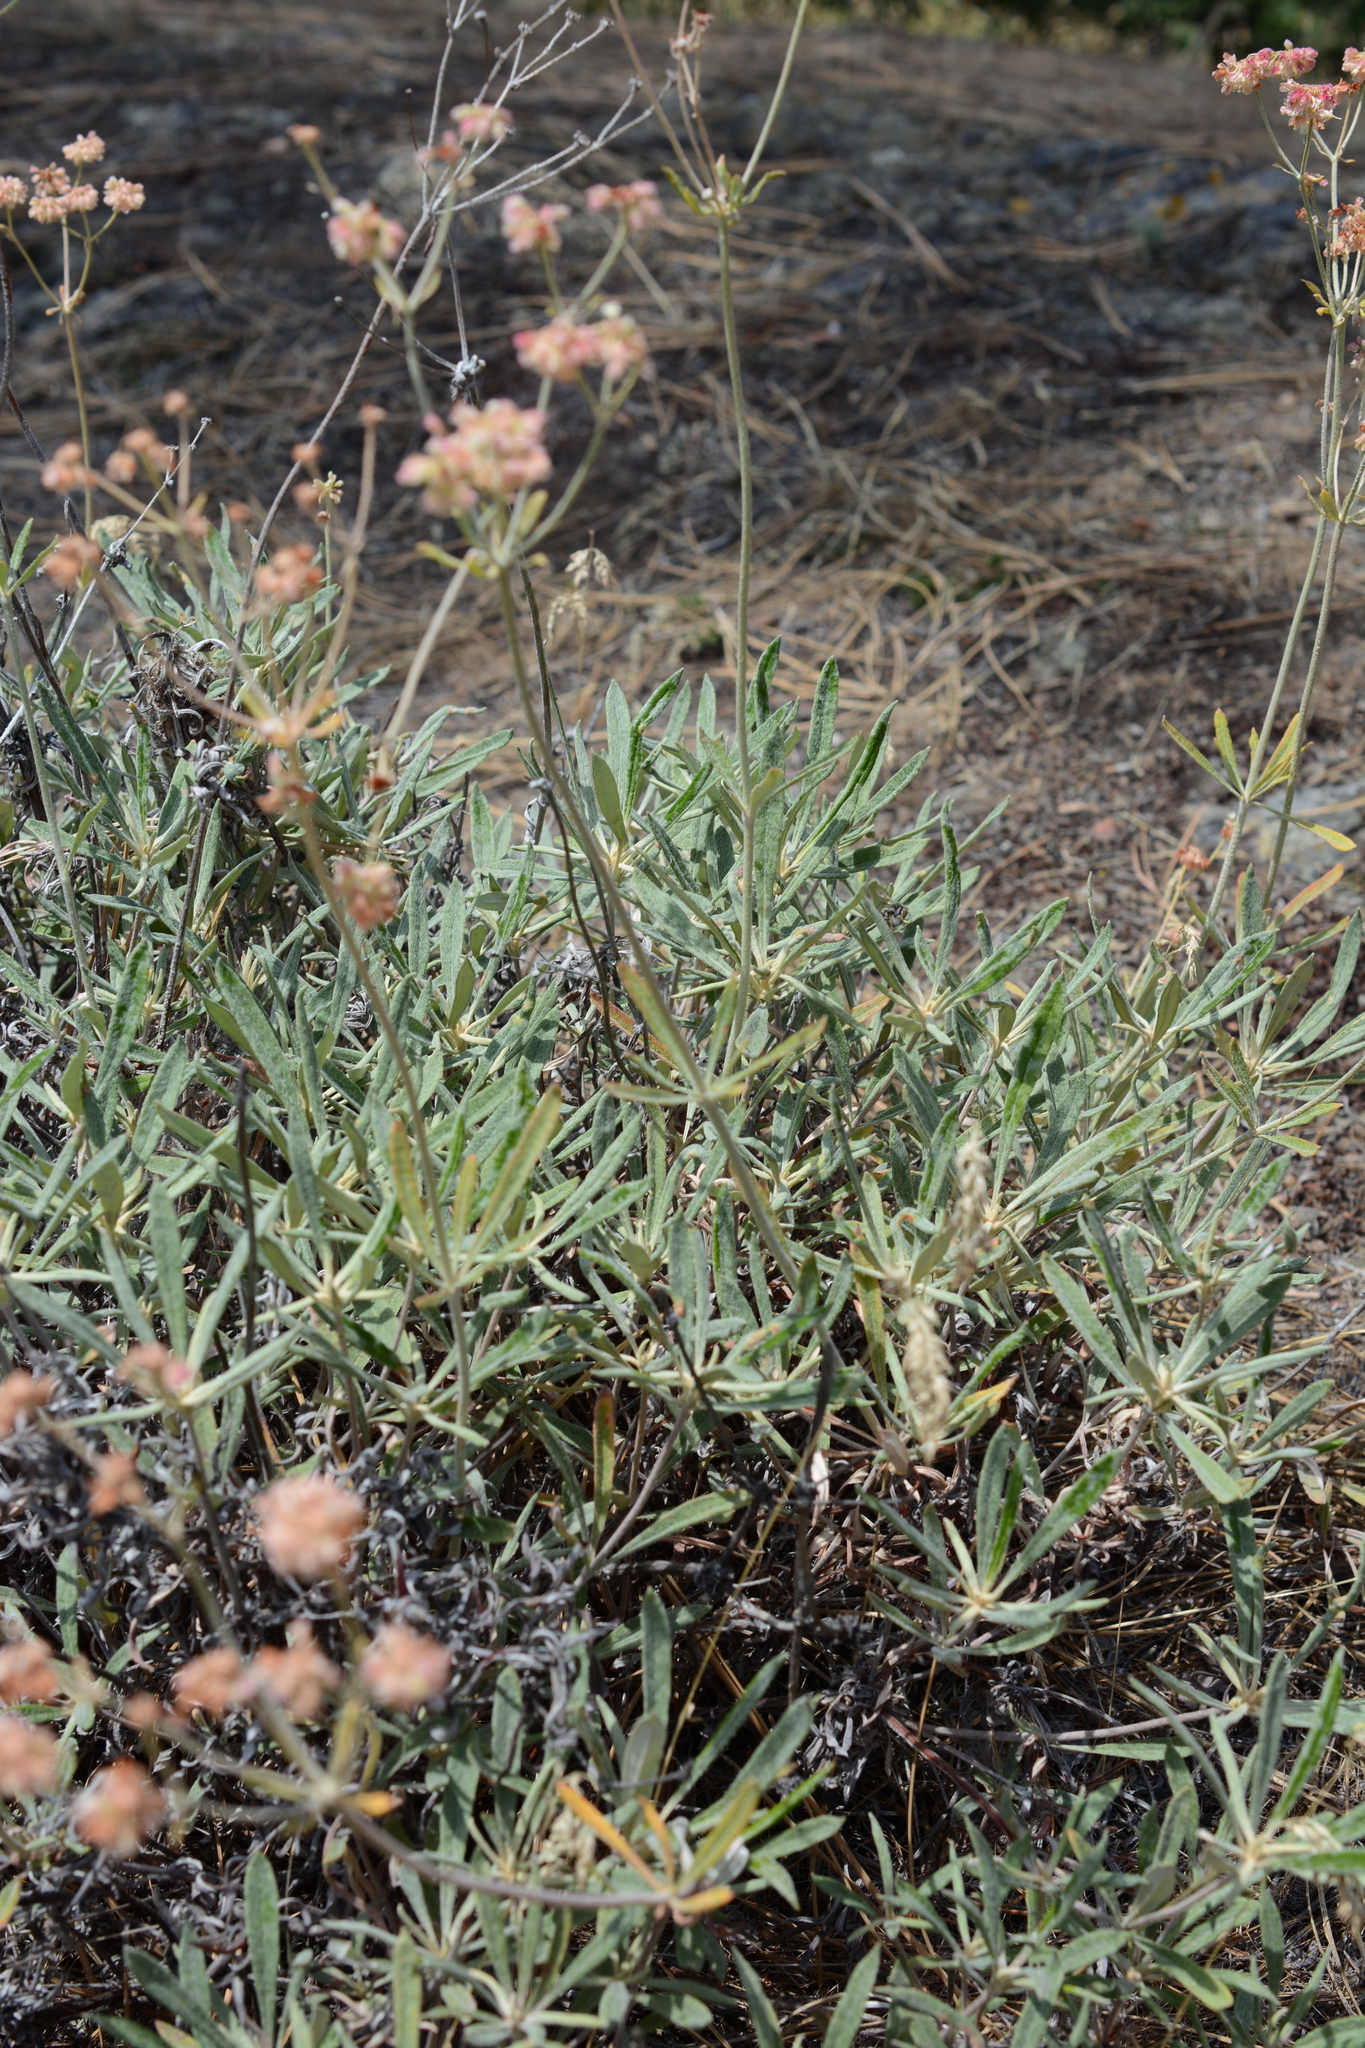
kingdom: Plantae
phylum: Tracheophyta
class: Magnoliopsida
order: Caryophyllales
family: Polygonaceae
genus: Eriogonum
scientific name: Eriogonum heracleoides
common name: Wyeth's buckwheat
